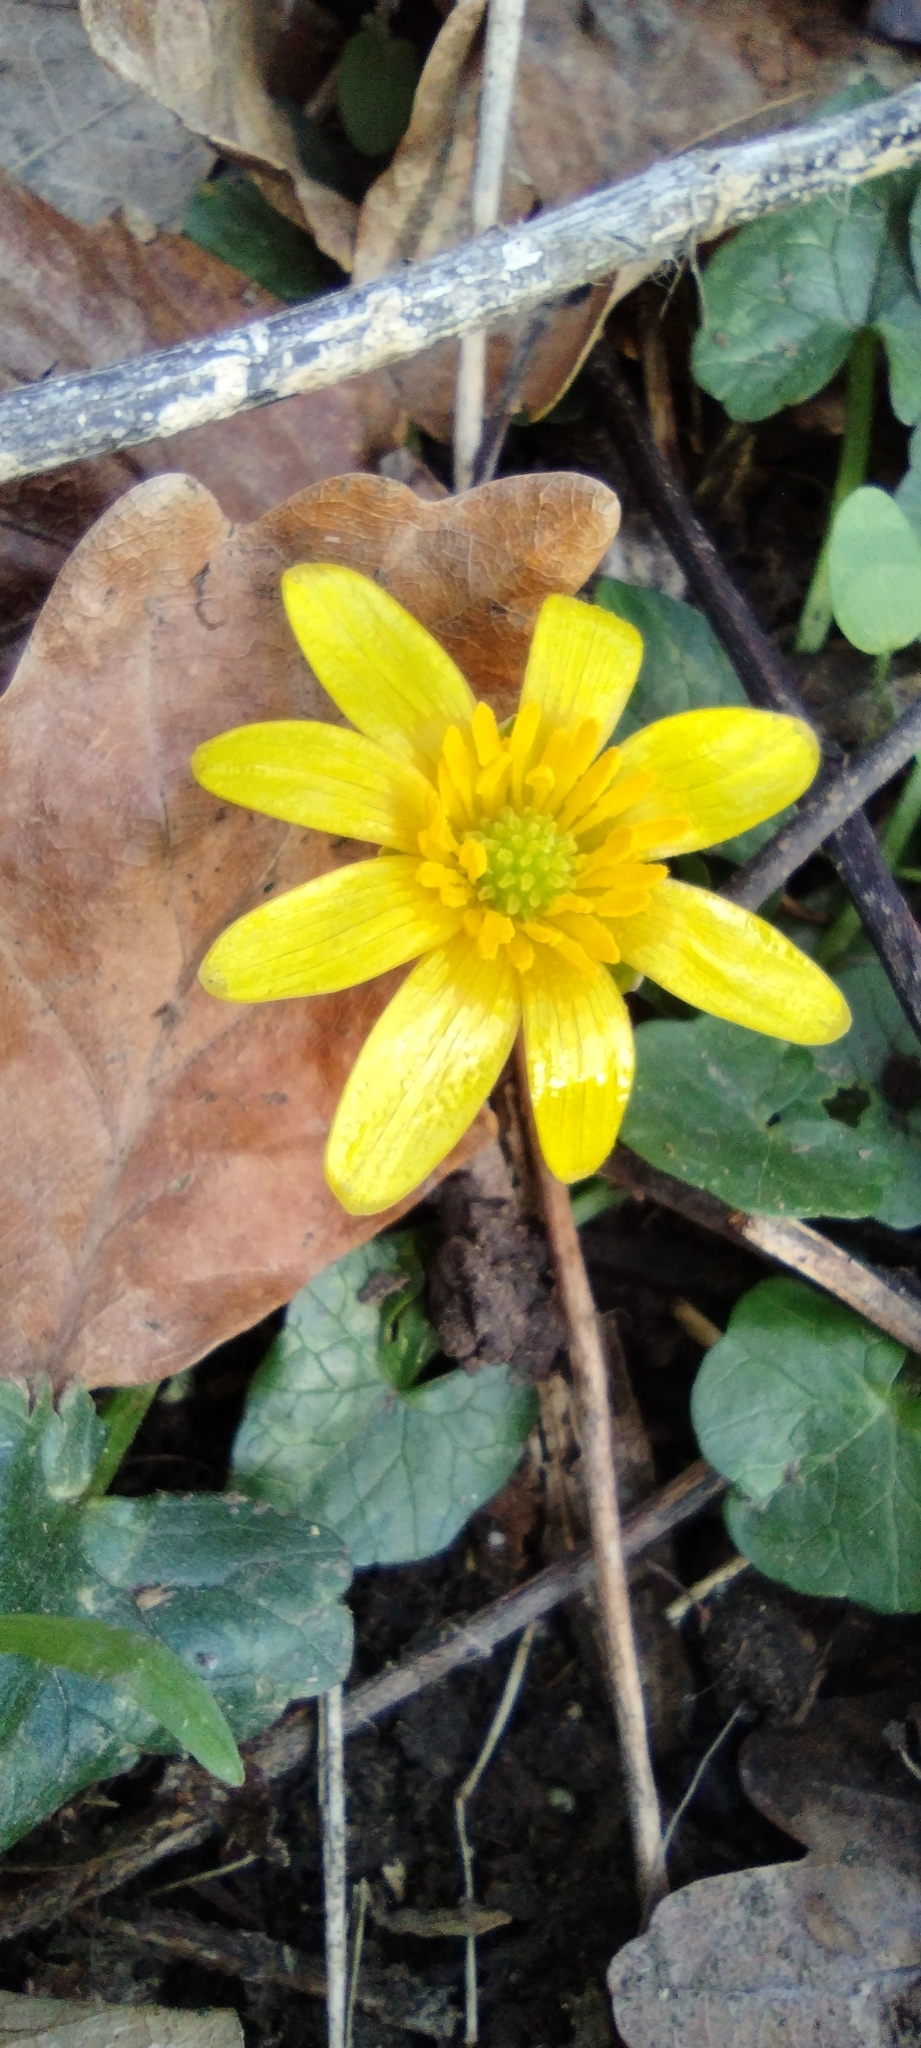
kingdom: Plantae
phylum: Tracheophyta
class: Magnoliopsida
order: Ranunculales
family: Ranunculaceae
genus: Ficaria
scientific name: Ficaria verna
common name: Lesser celandine
